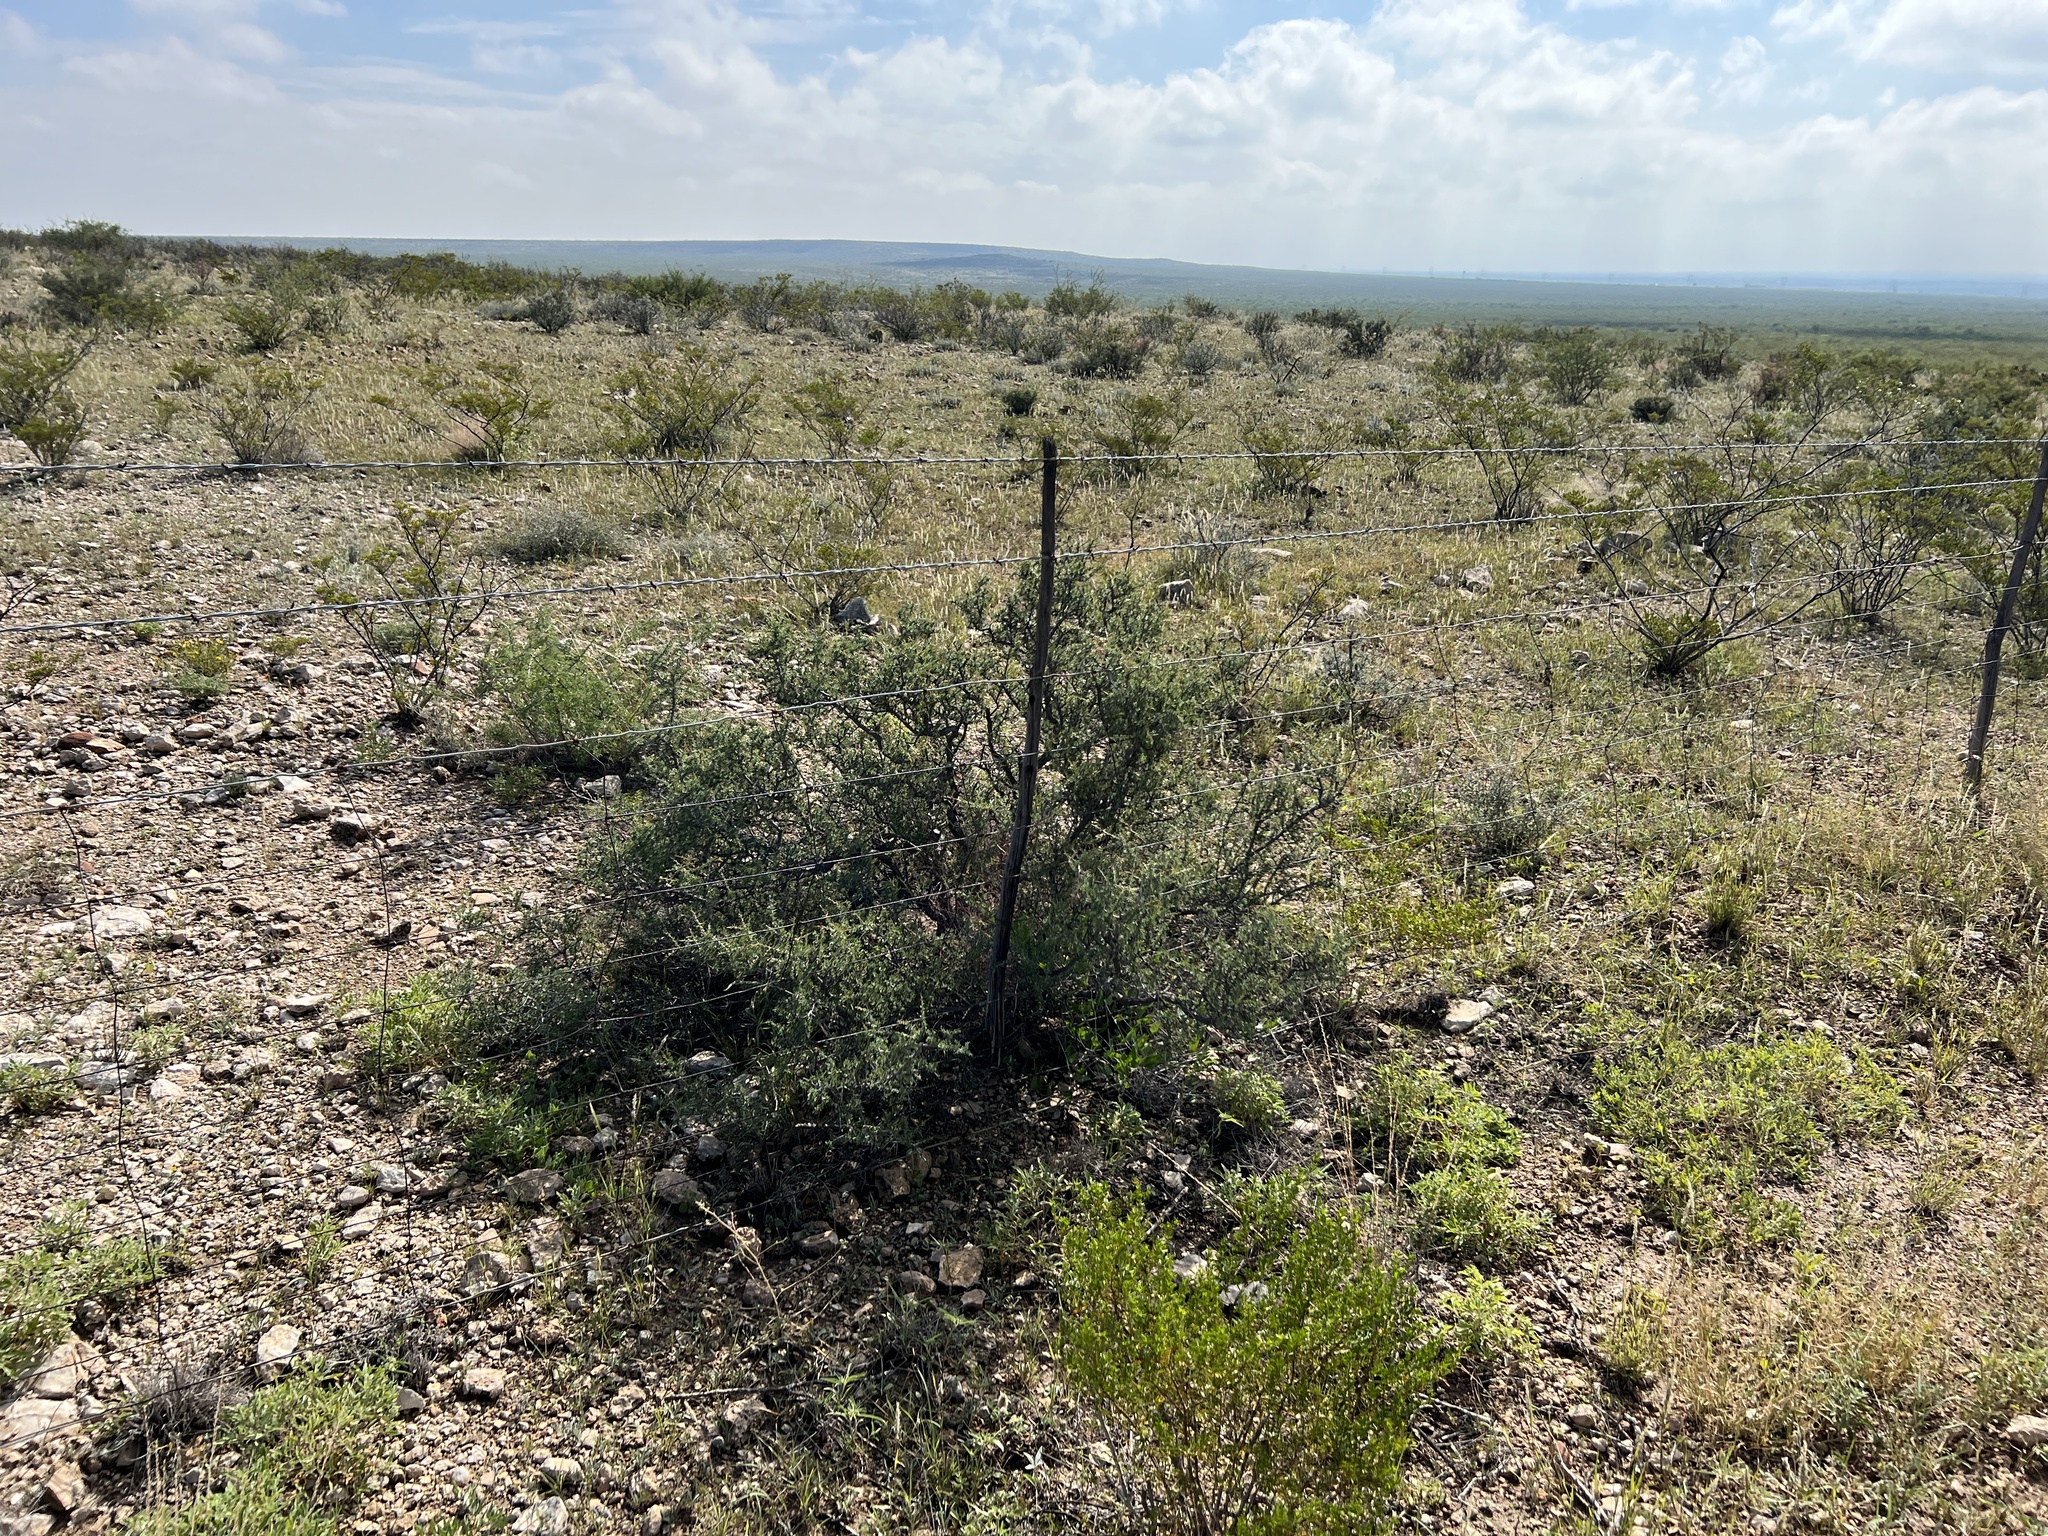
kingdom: Plantae
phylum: Tracheophyta
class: Magnoliopsida
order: Rosales
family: Rhamnaceae
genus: Condalia
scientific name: Condalia ericoides
